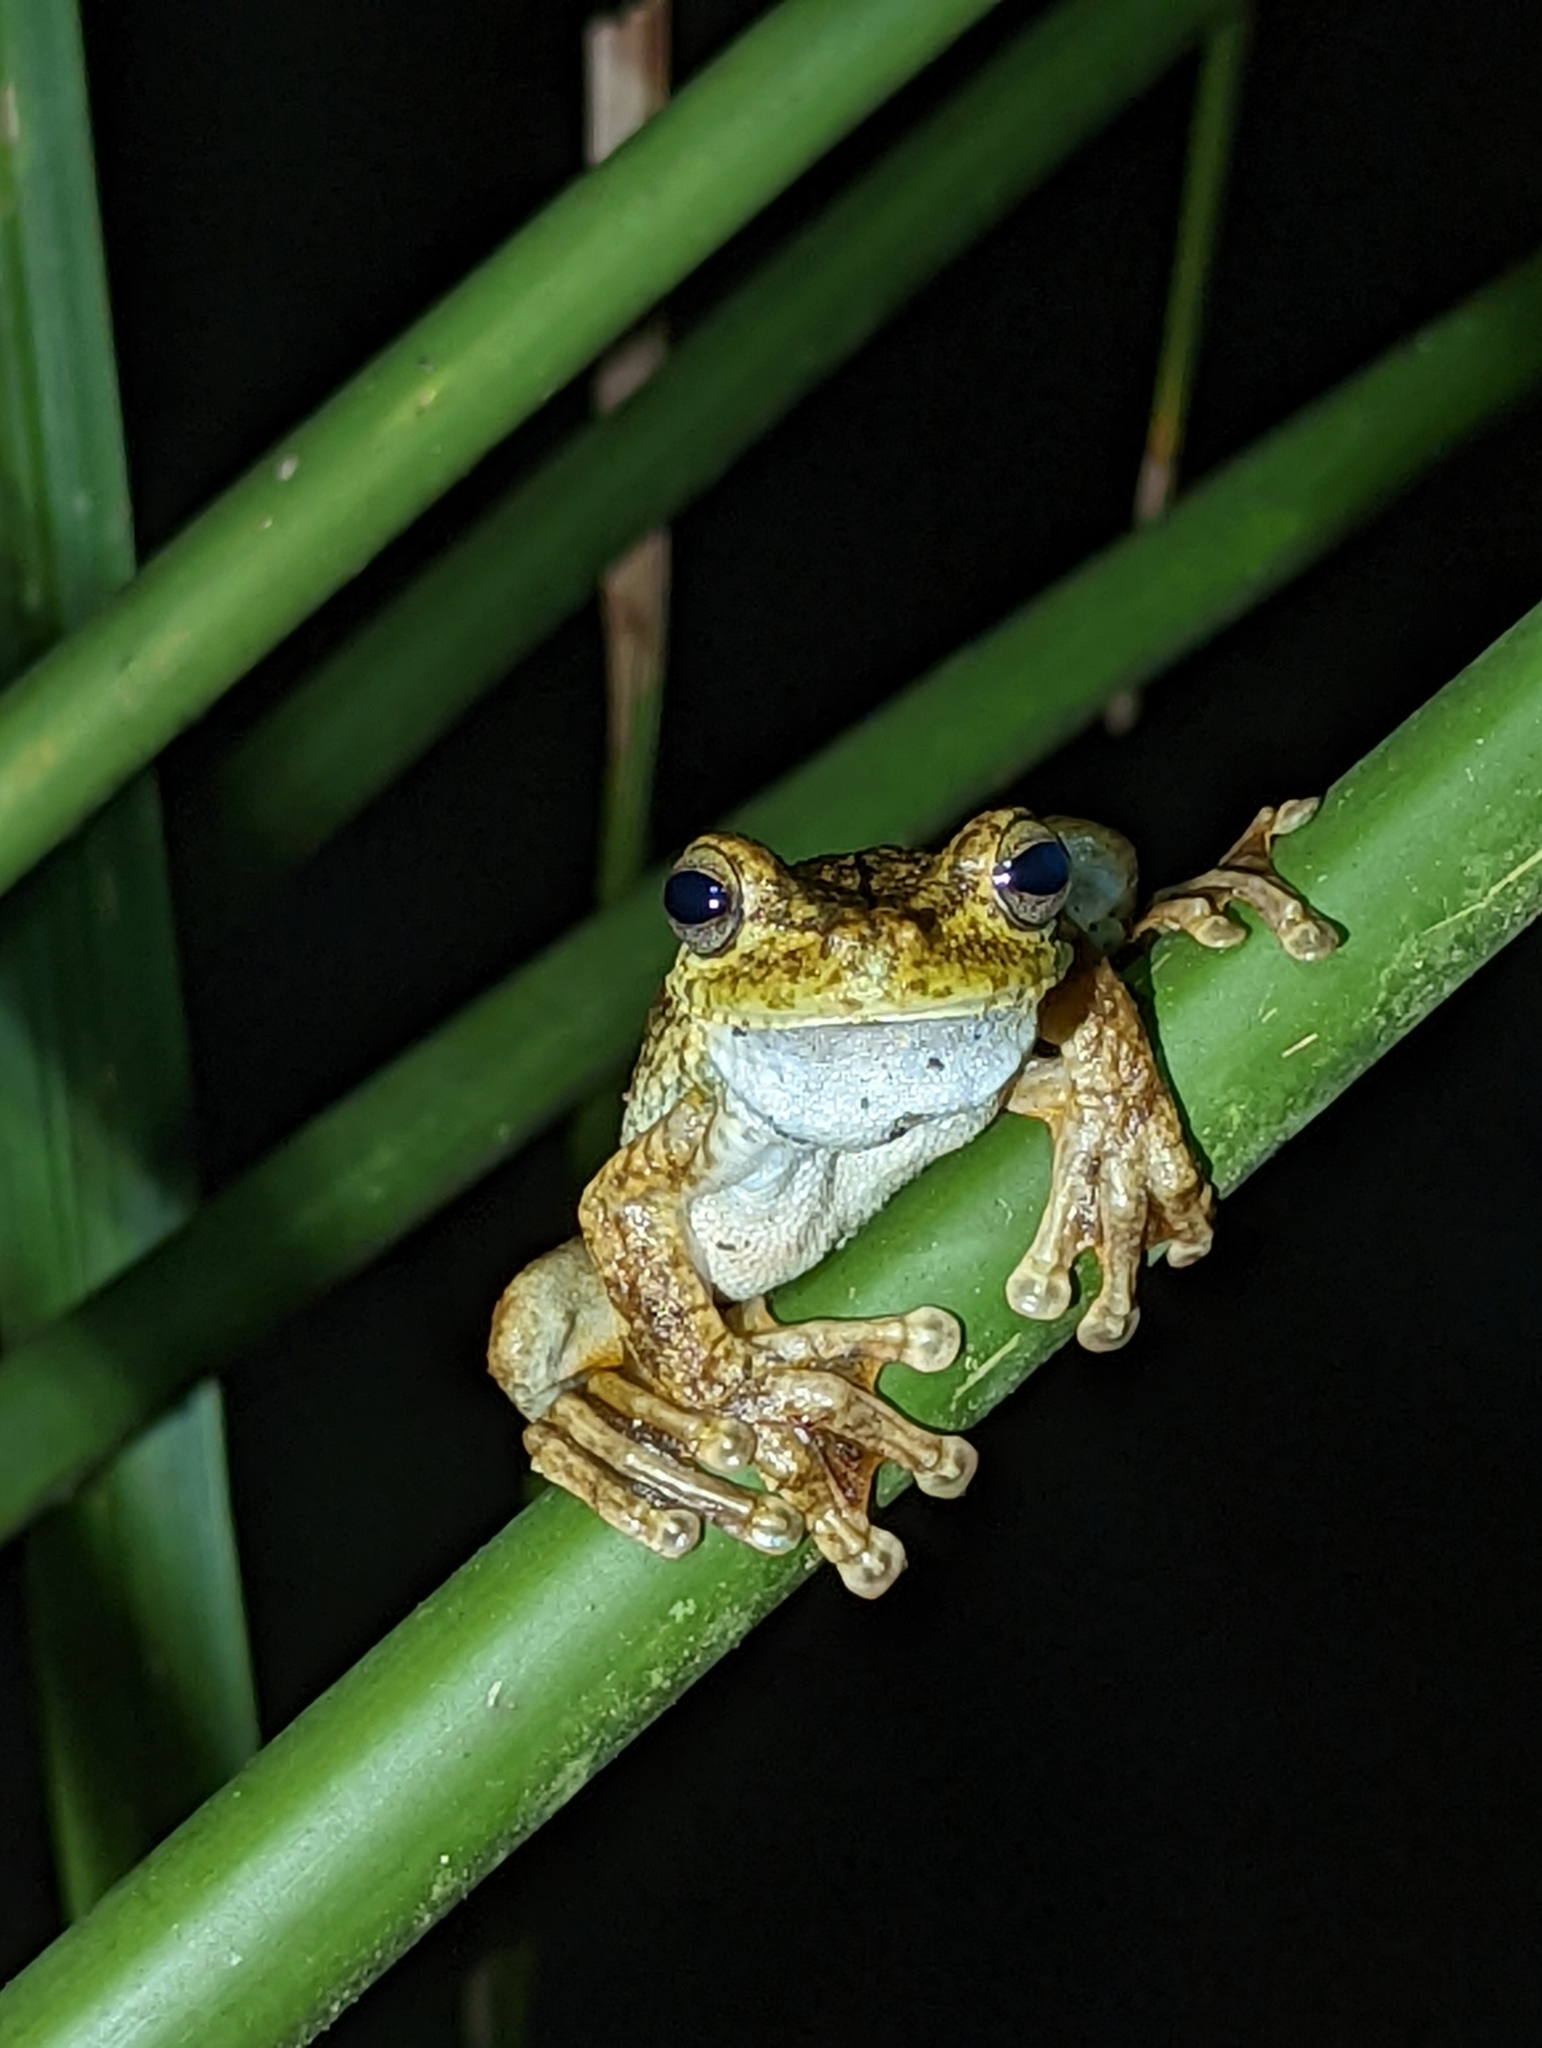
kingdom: Animalia
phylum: Chordata
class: Amphibia
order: Anura
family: Hylidae
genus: Boana
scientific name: Boana rosenbergi
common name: Rosenberg´s gladiator treefrog
